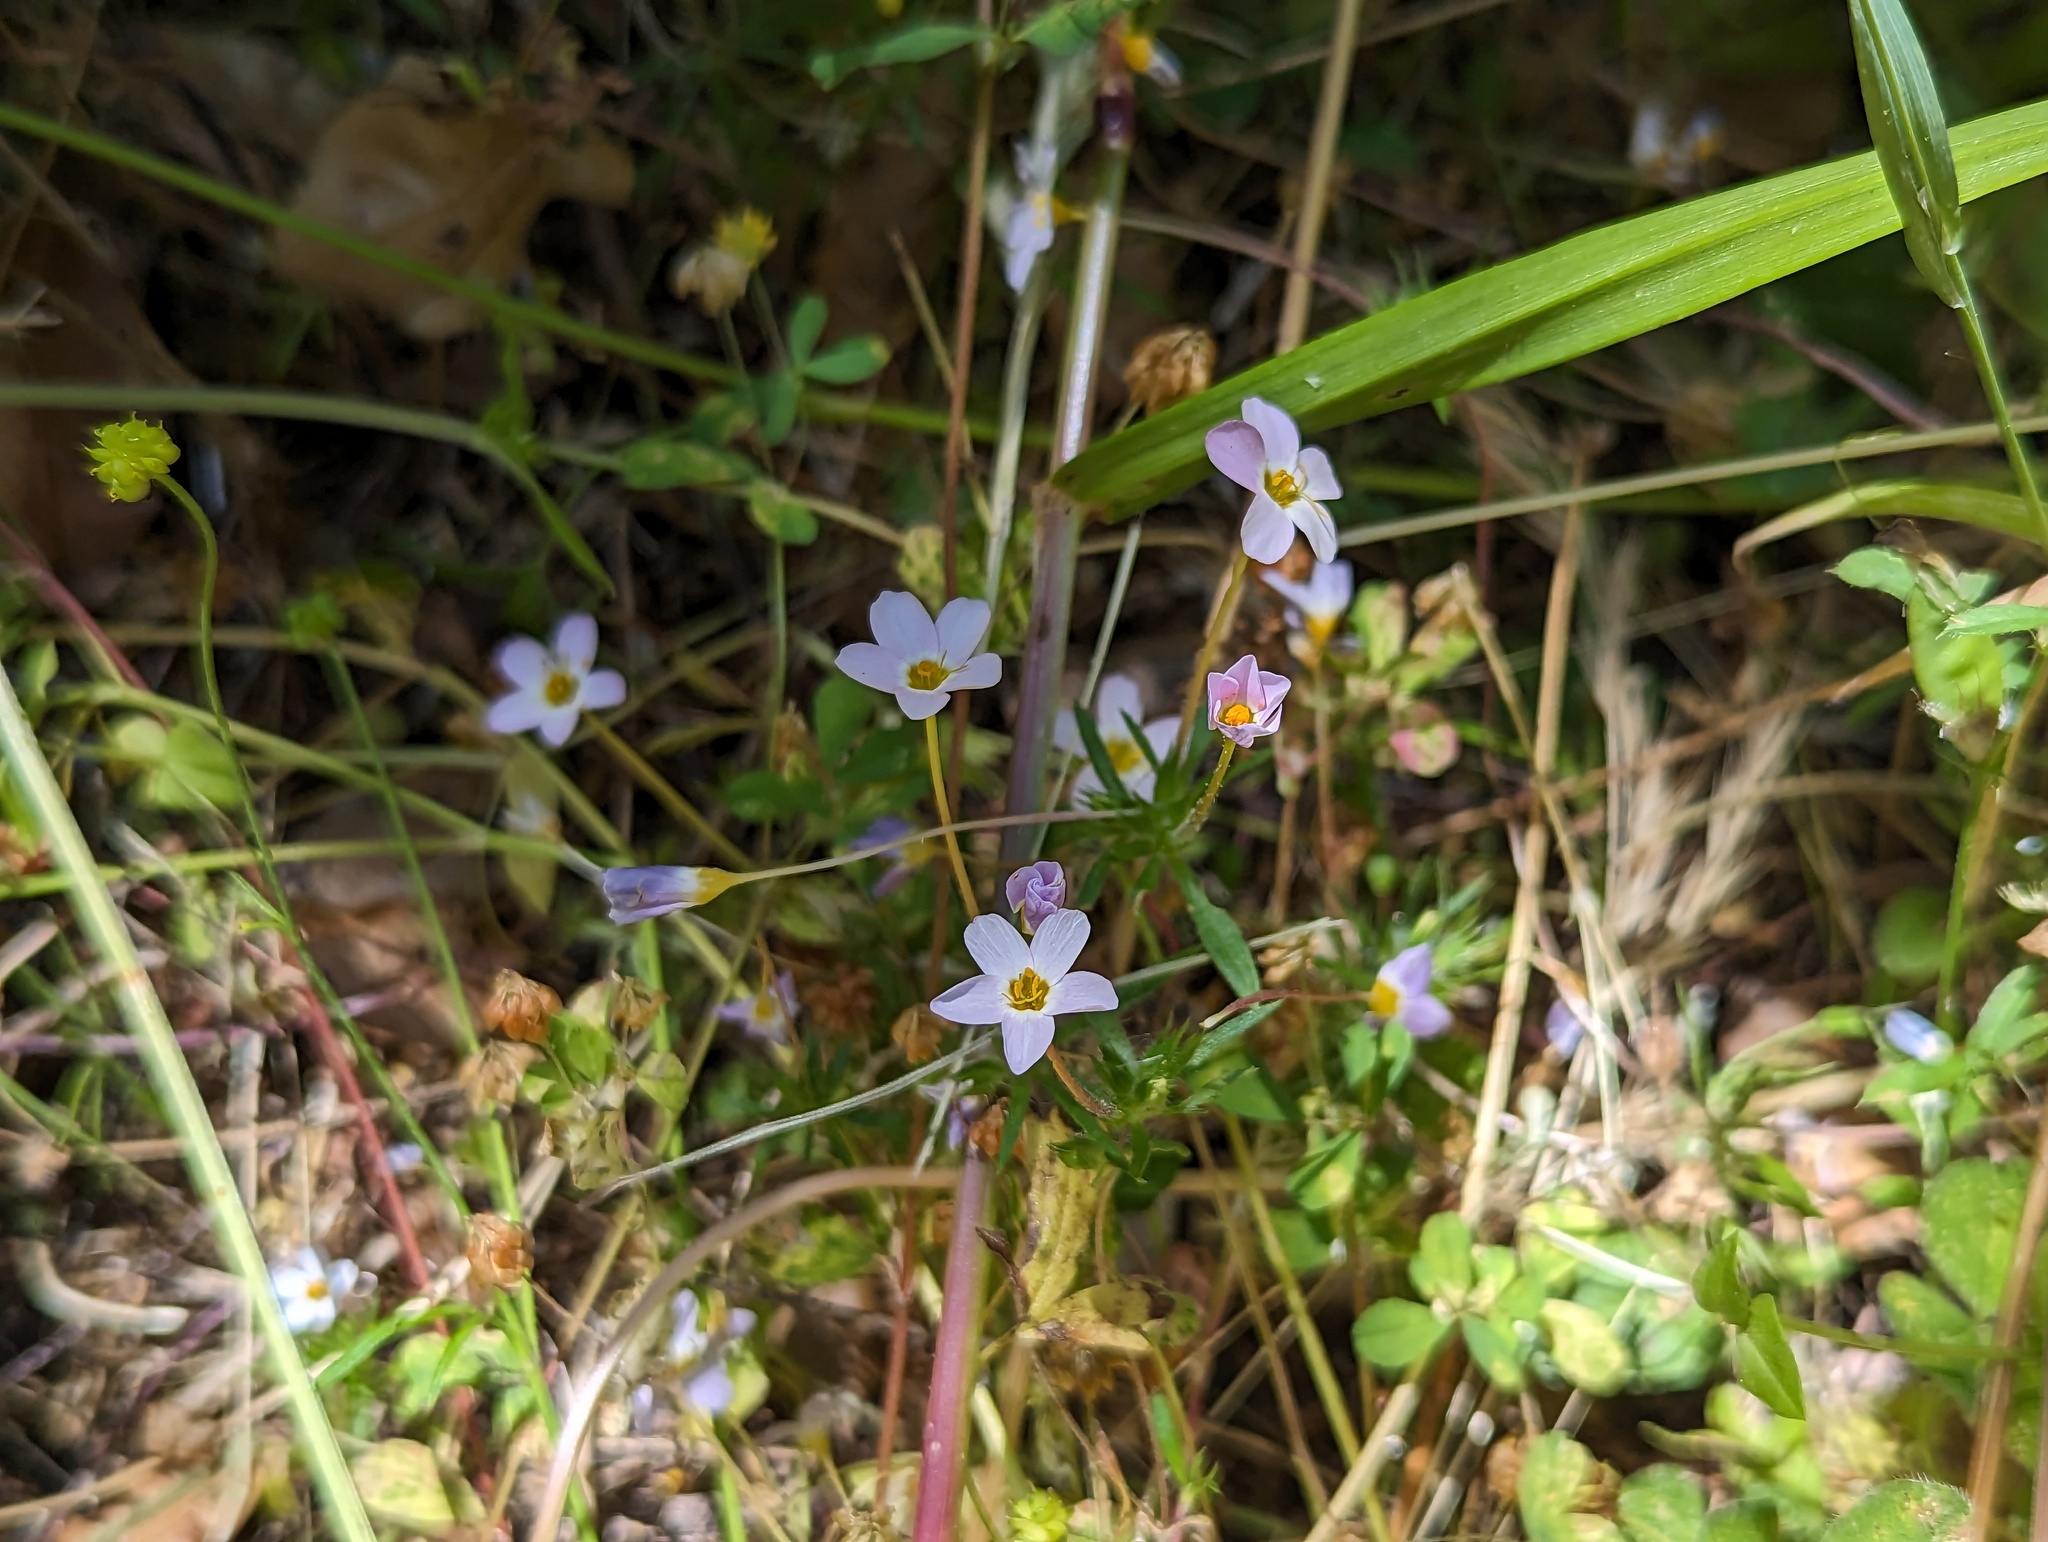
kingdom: Plantae
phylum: Tracheophyta
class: Magnoliopsida
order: Ericales
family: Polemoniaceae
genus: Leptosiphon
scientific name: Leptosiphon androsaceus
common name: False babystars
